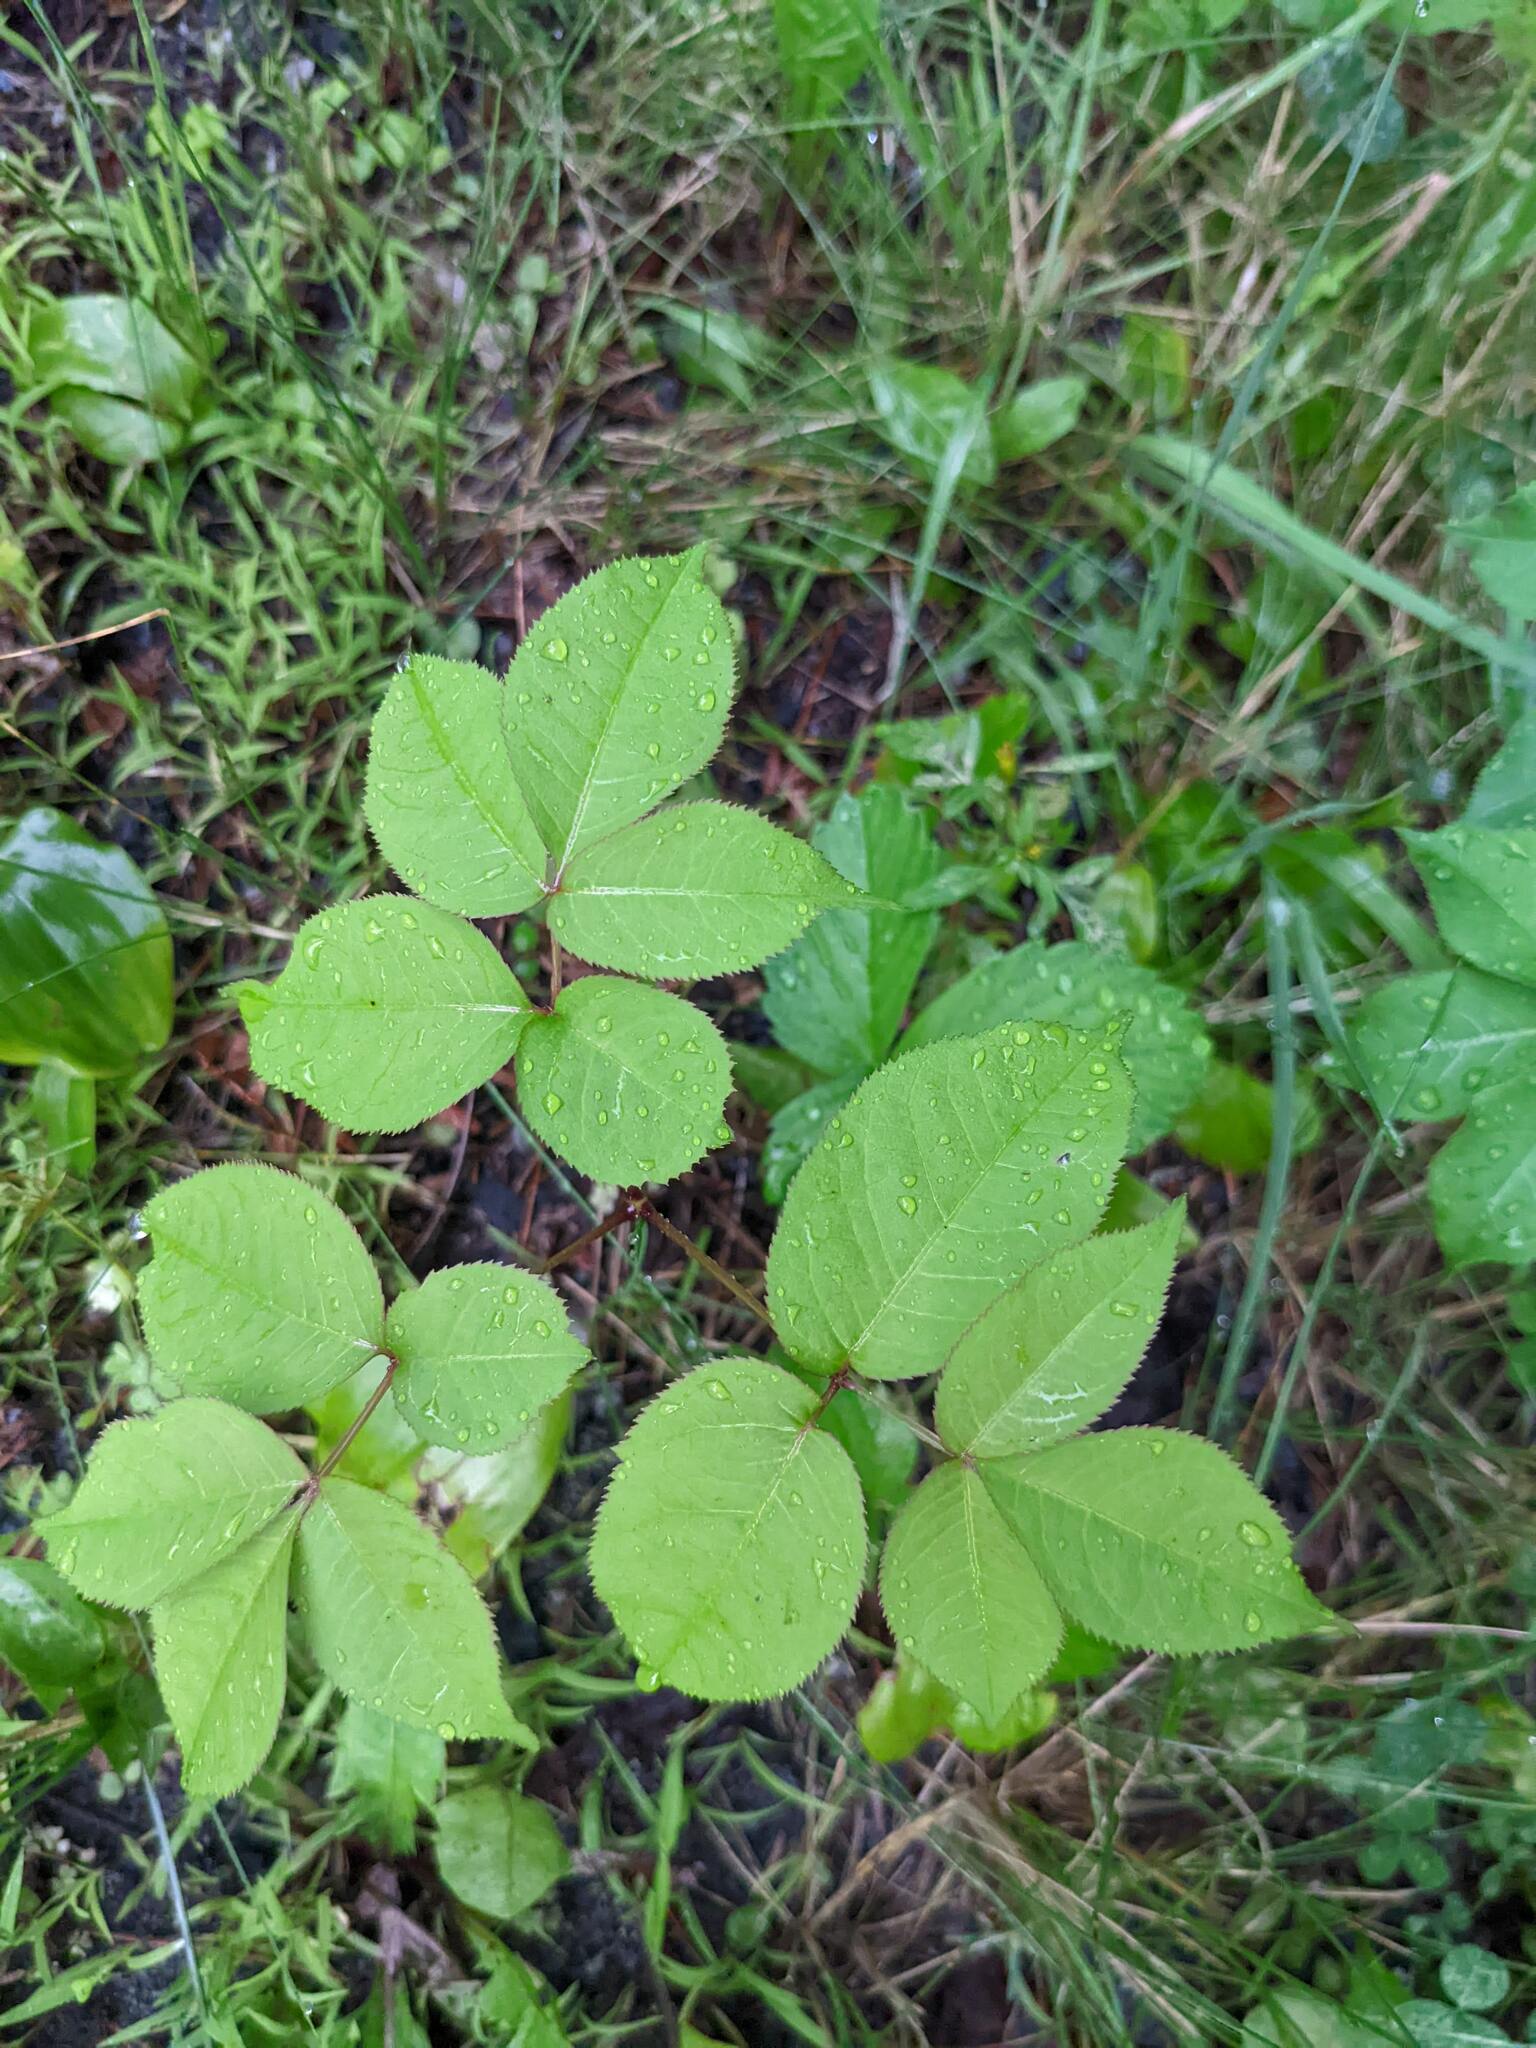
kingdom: Plantae
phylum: Tracheophyta
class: Magnoliopsida
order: Apiales
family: Araliaceae
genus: Aralia
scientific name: Aralia nudicaulis
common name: Wild sarsaparilla
